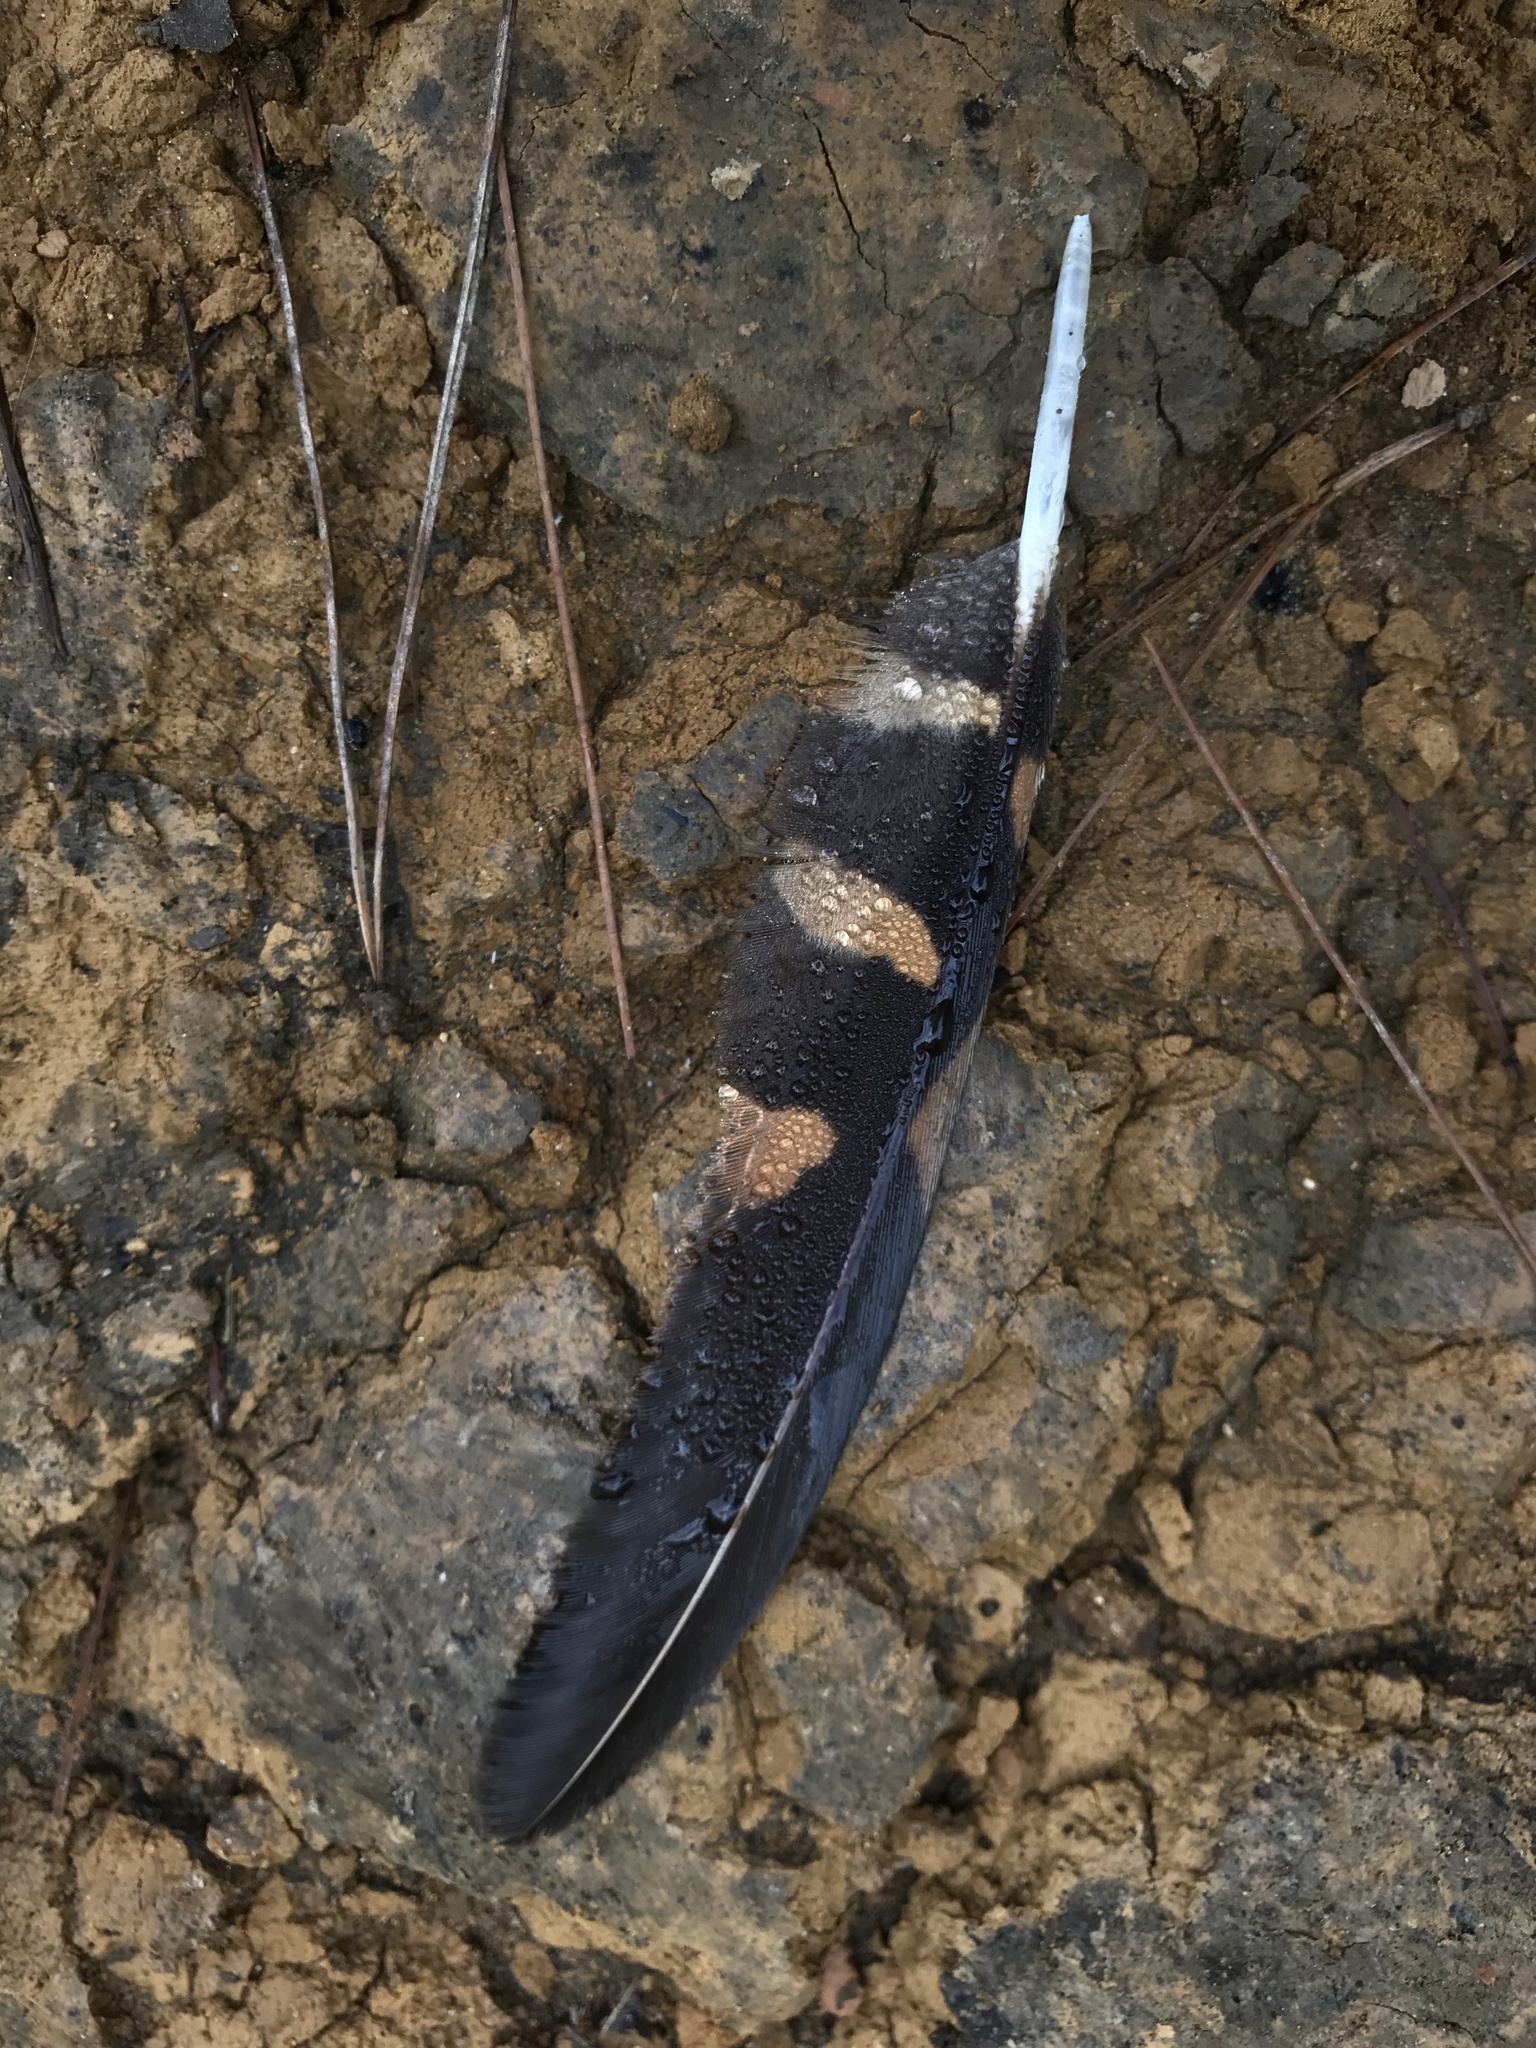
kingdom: Animalia
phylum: Chordata
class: Aves
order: Caprimulgiformes
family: Caprimulgidae
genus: Systellura
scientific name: Systellura longirostris
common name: Band-winged nightjar
